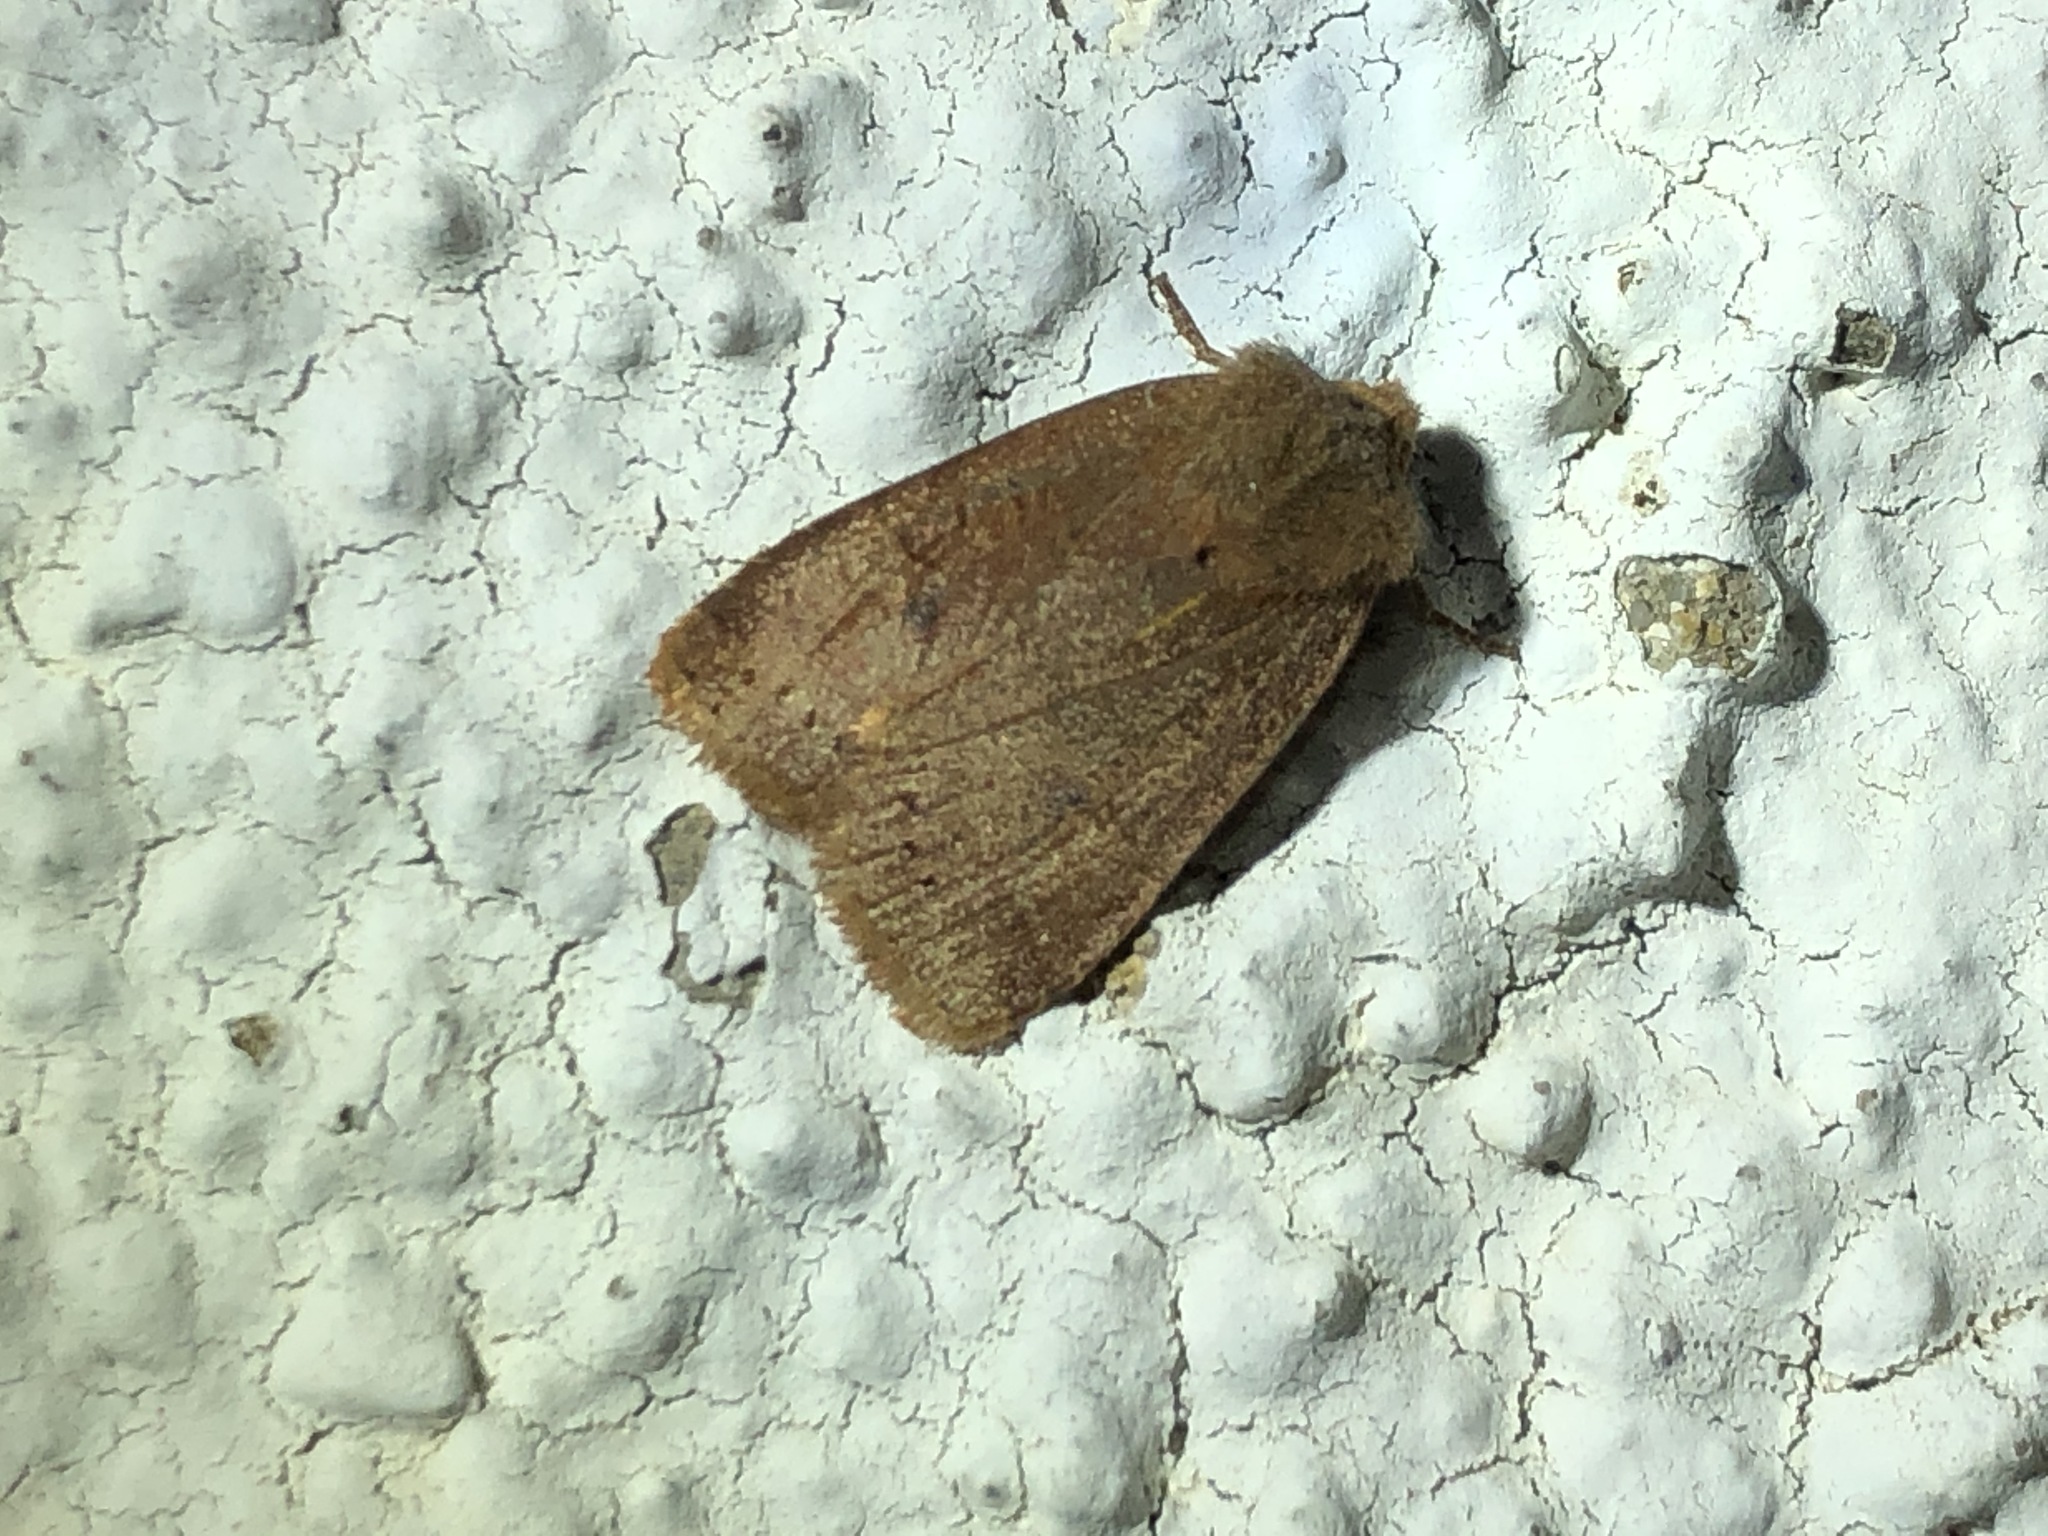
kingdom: Animalia
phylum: Arthropoda
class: Insecta
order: Lepidoptera
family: Noctuidae
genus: Conistra
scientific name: Conistra vaccinii
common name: Chestnut
